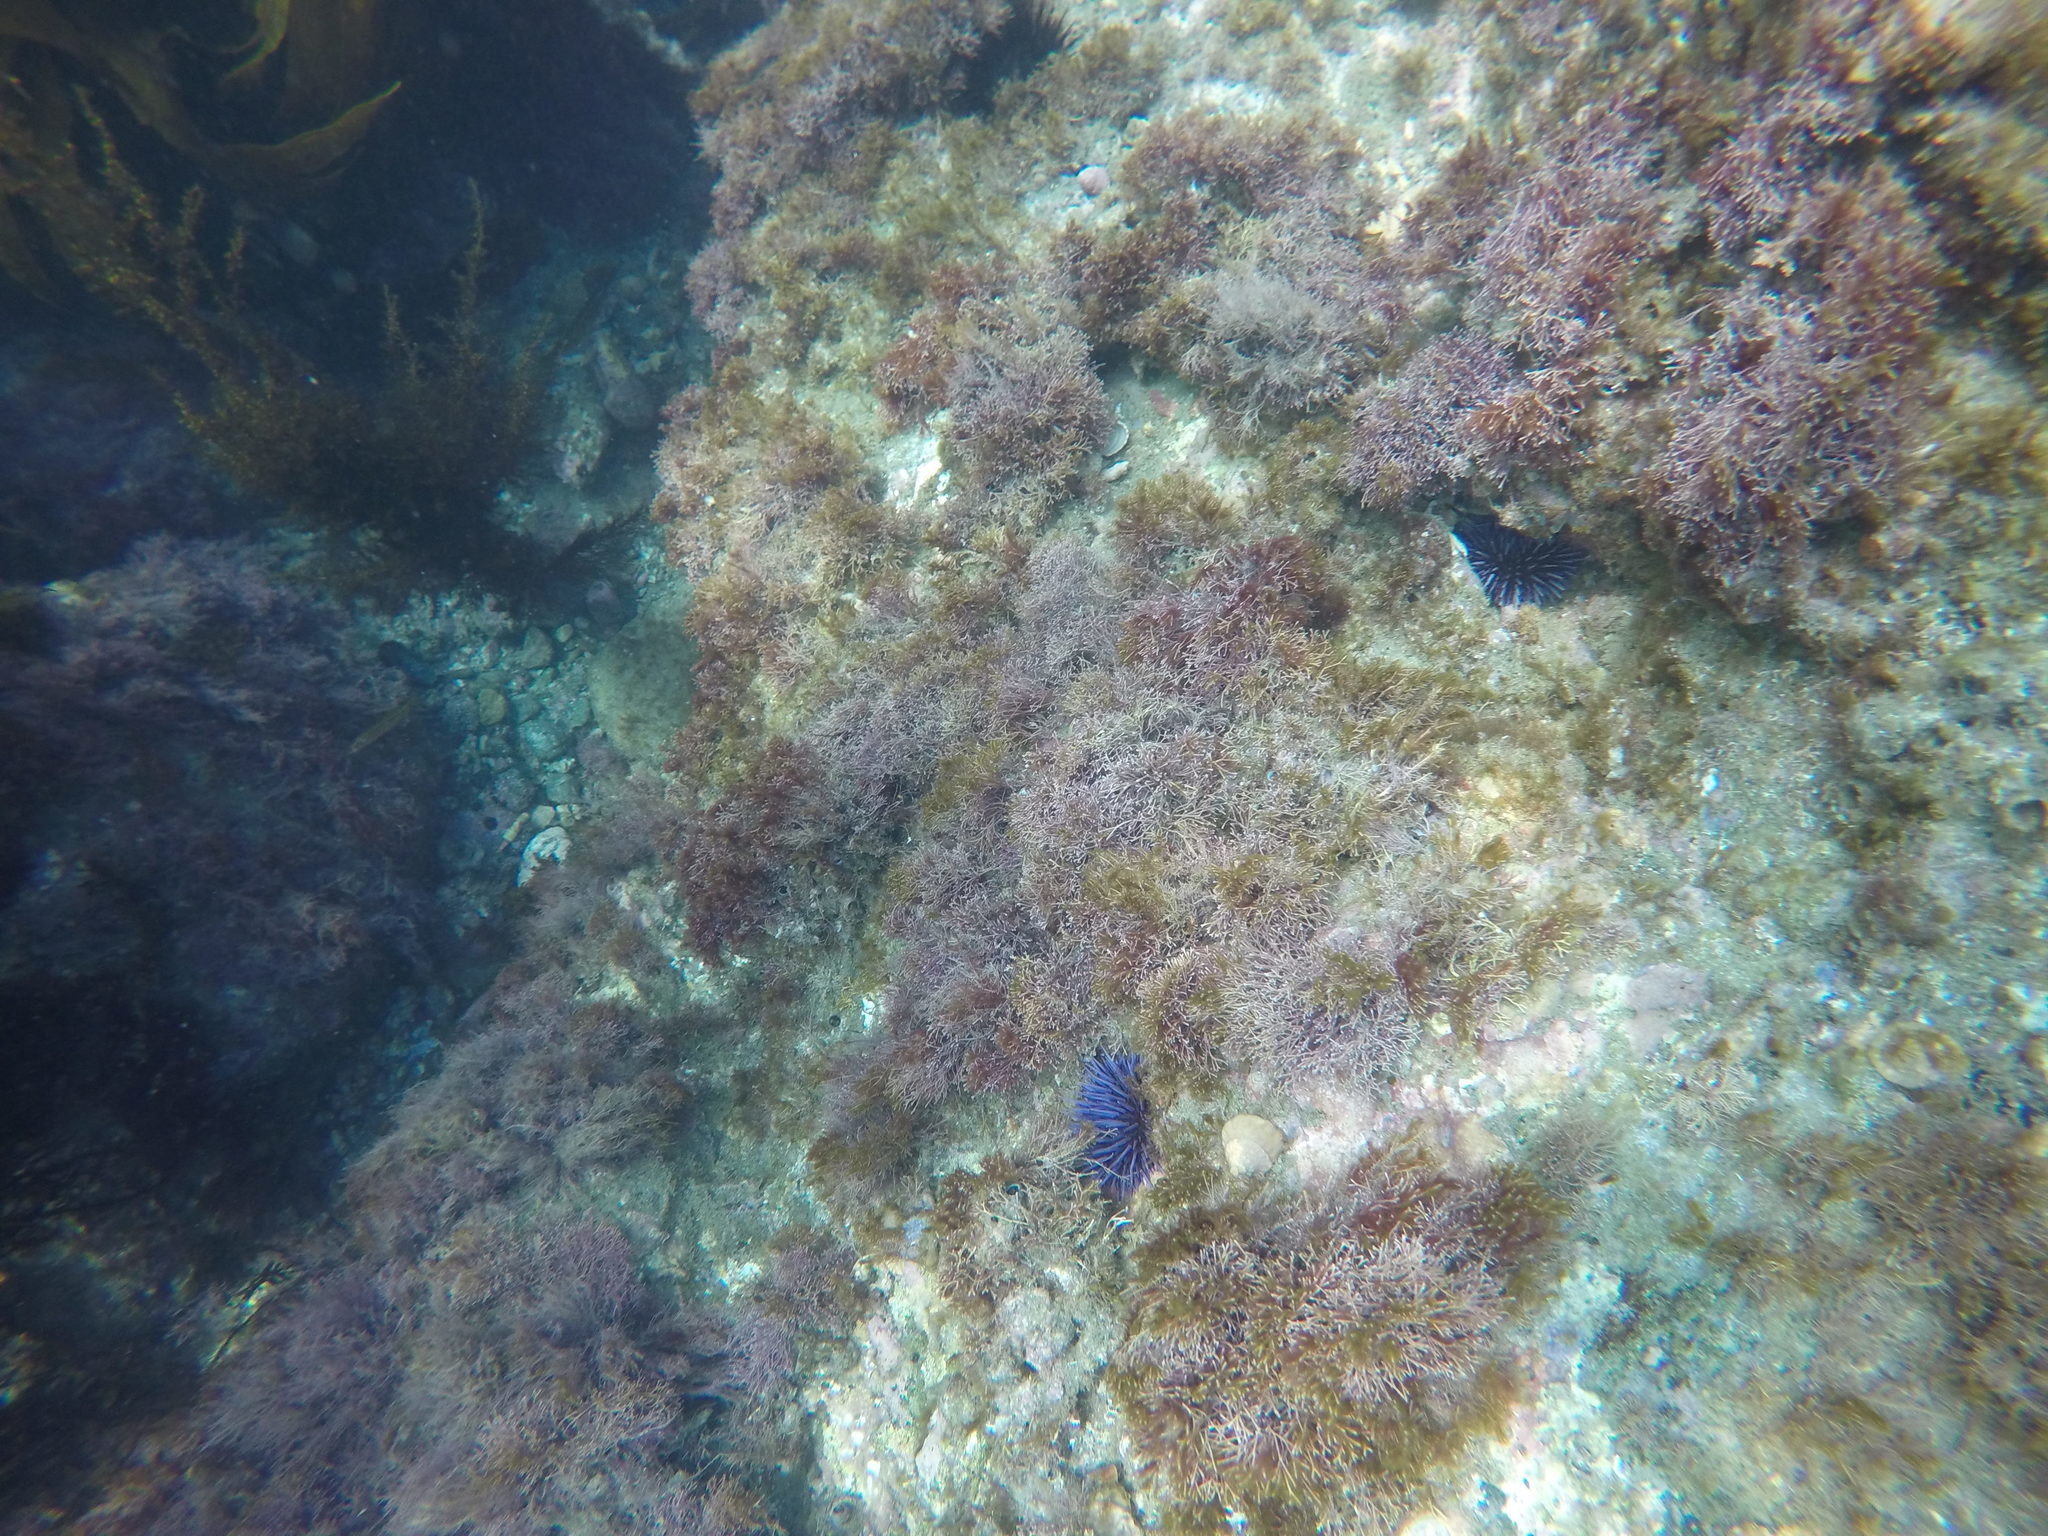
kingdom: Animalia
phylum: Echinodermata
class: Echinoidea
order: Camarodonta
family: Strongylocentrotidae
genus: Strongylocentrotus
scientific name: Strongylocentrotus purpuratus
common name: Purple sea urchin
